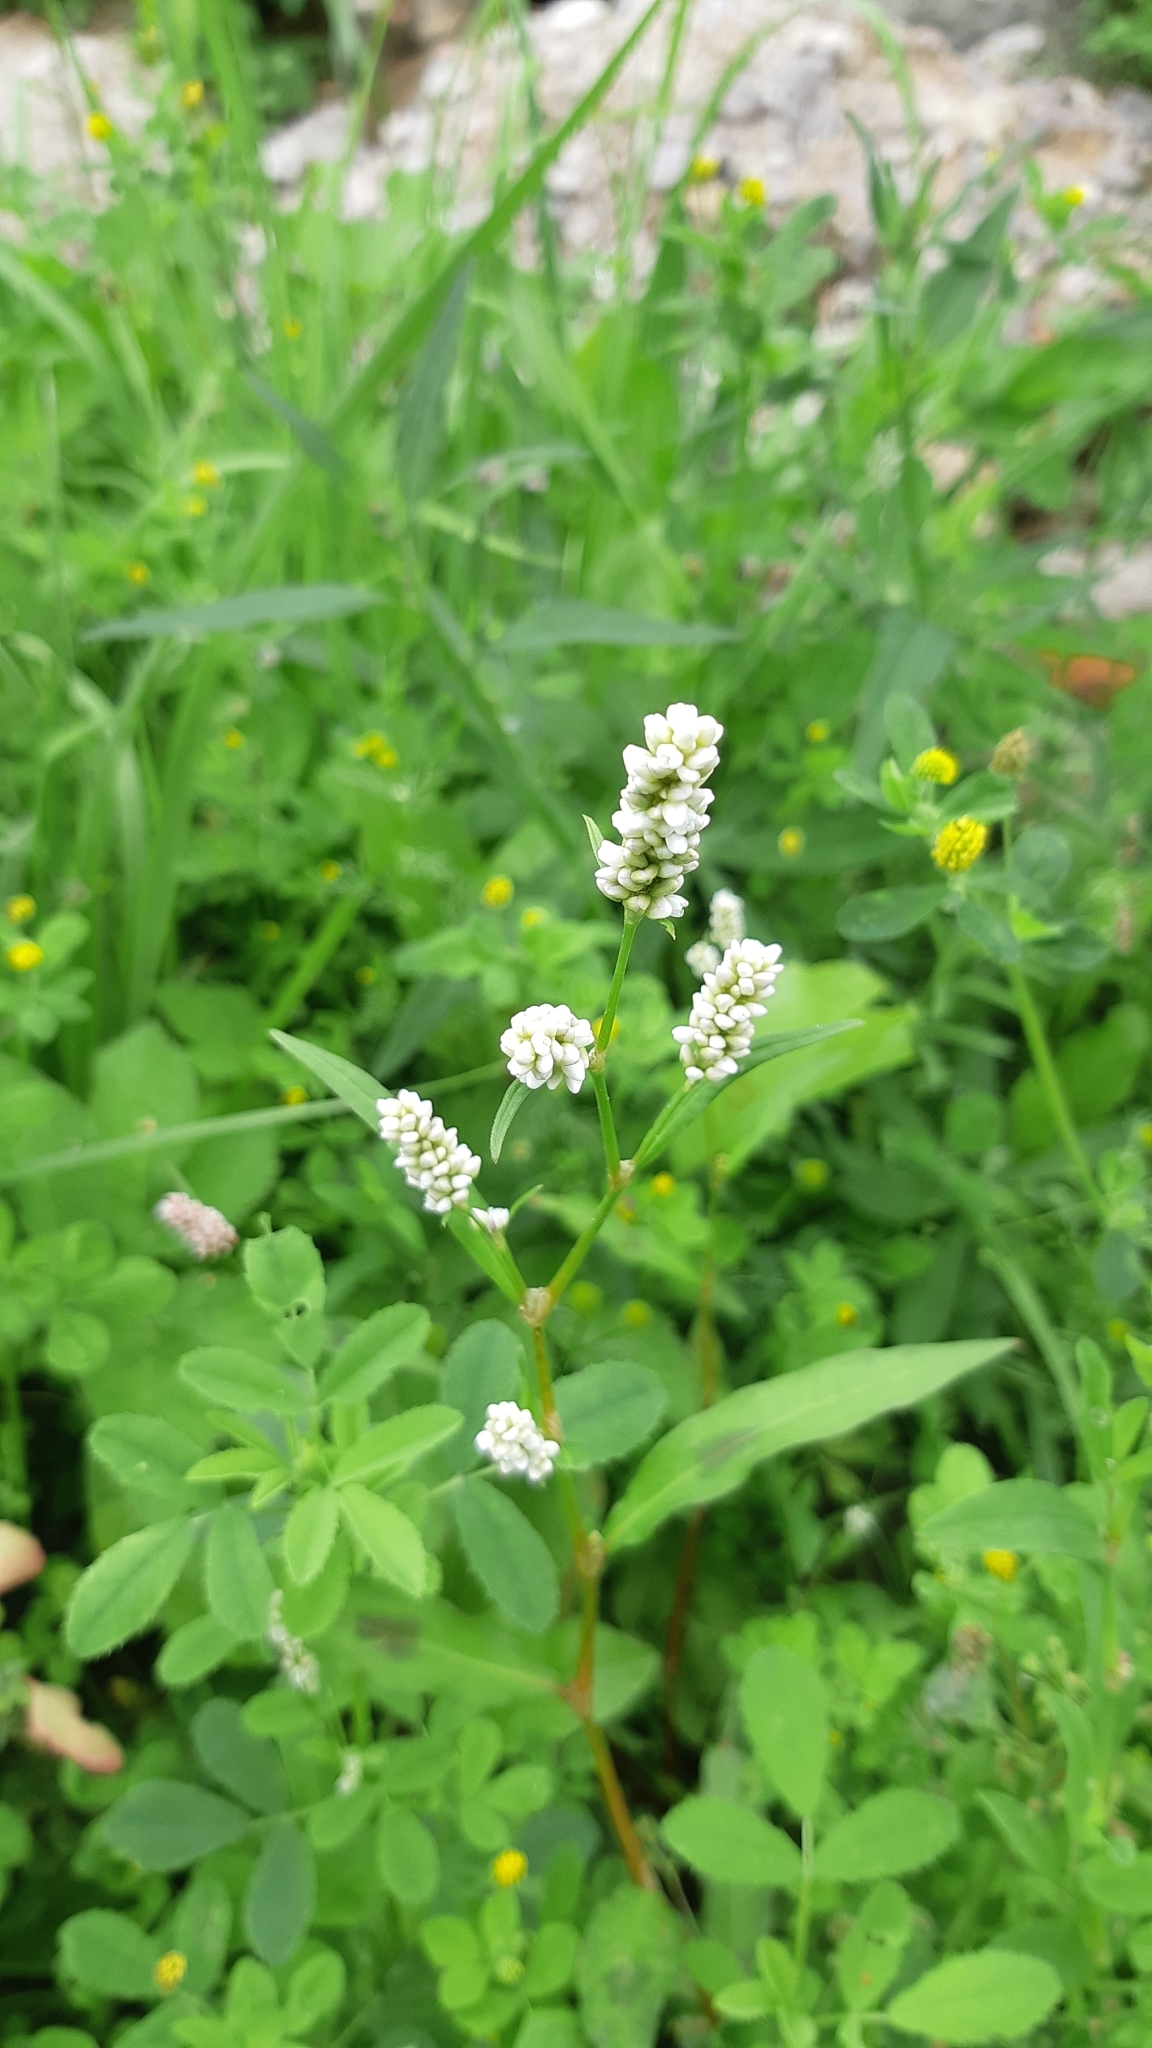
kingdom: Plantae
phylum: Tracheophyta
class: Magnoliopsida
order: Caryophyllales
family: Polygonaceae
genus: Persicaria
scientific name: Persicaria maculosa
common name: Redshank
